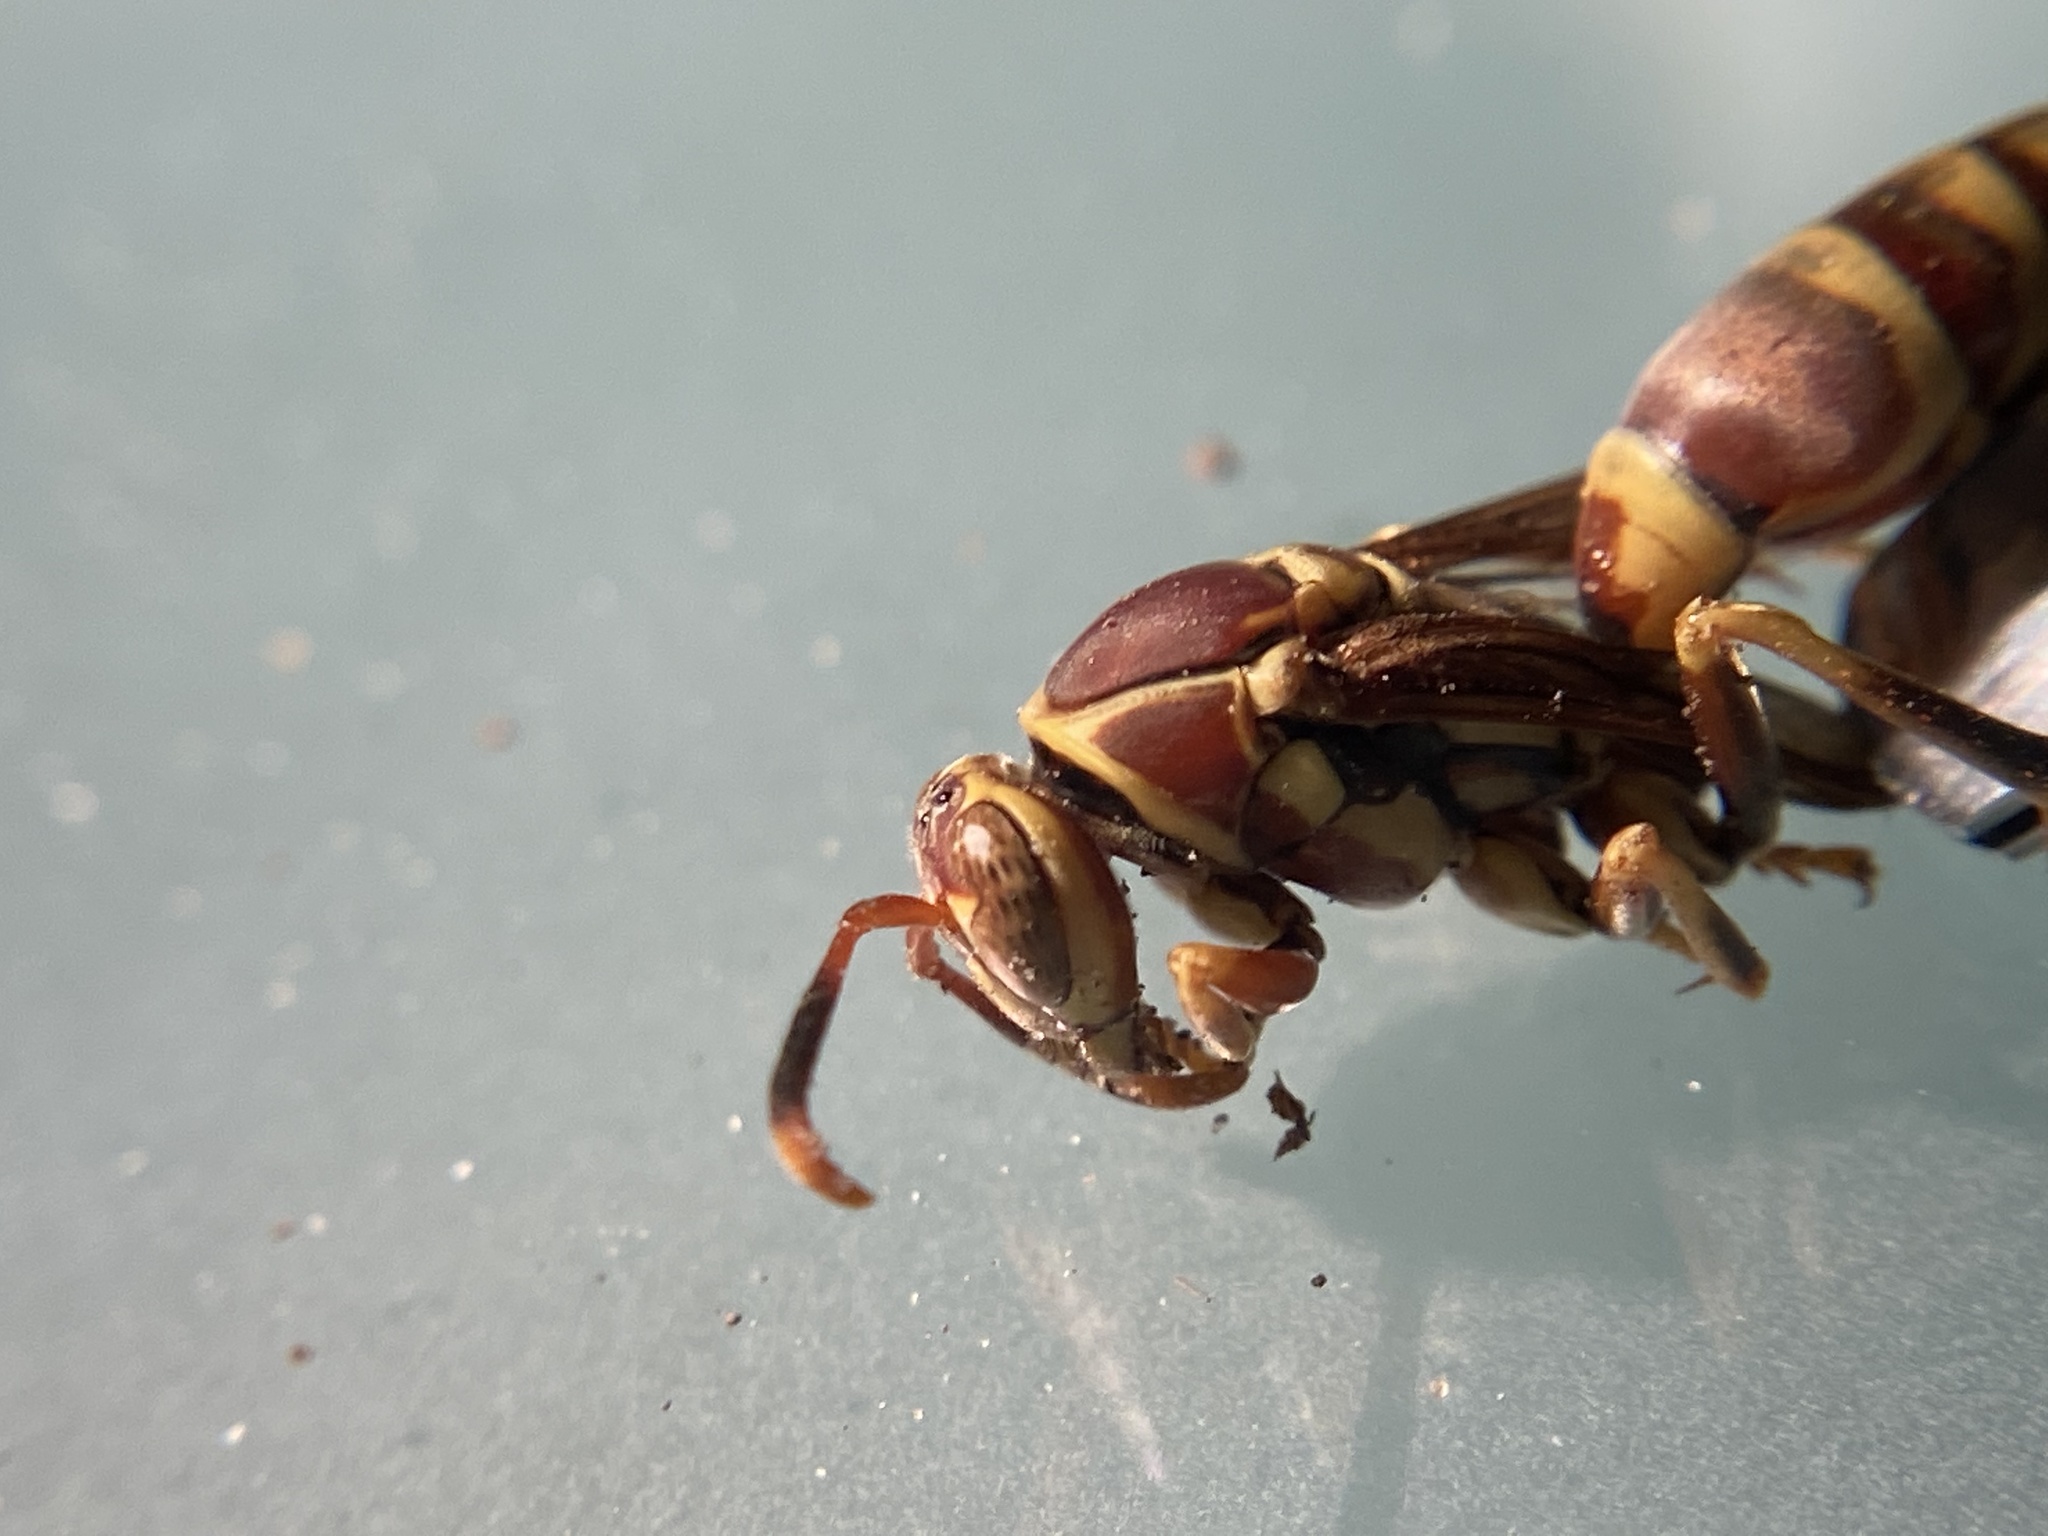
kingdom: Animalia
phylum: Arthropoda
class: Insecta
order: Hymenoptera
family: Eumenidae
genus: Polistes
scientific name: Polistes exclamans
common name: Paper wasp
